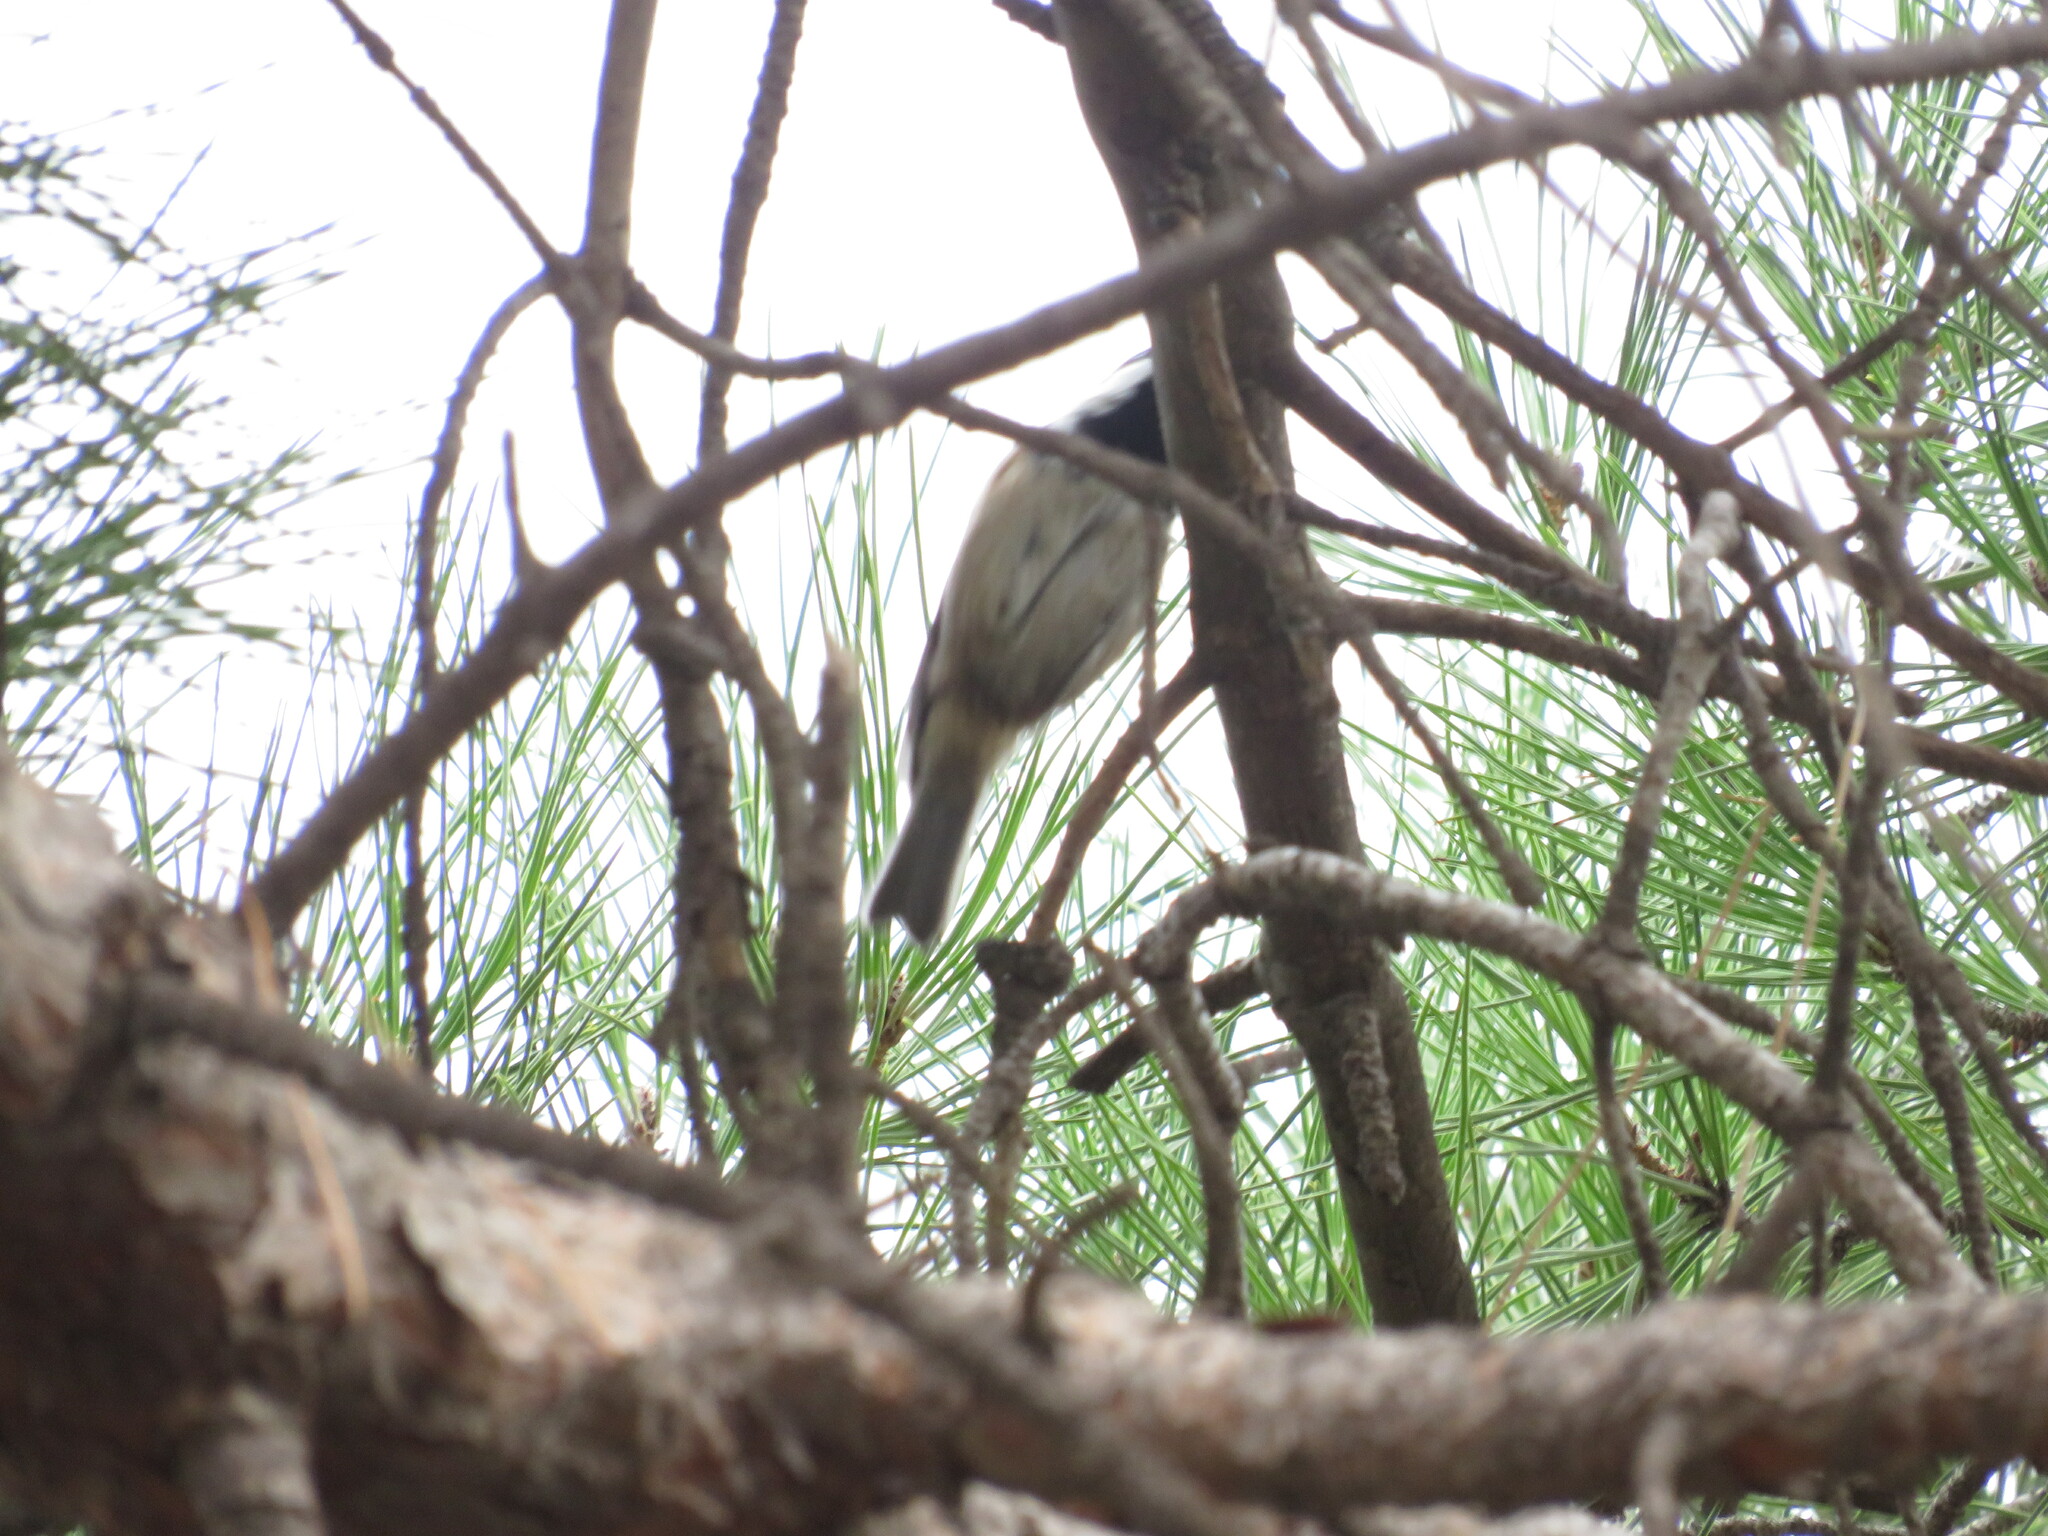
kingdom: Animalia
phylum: Chordata
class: Aves
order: Passeriformes
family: Paridae
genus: Periparus
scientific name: Periparus ater
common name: Coal tit
